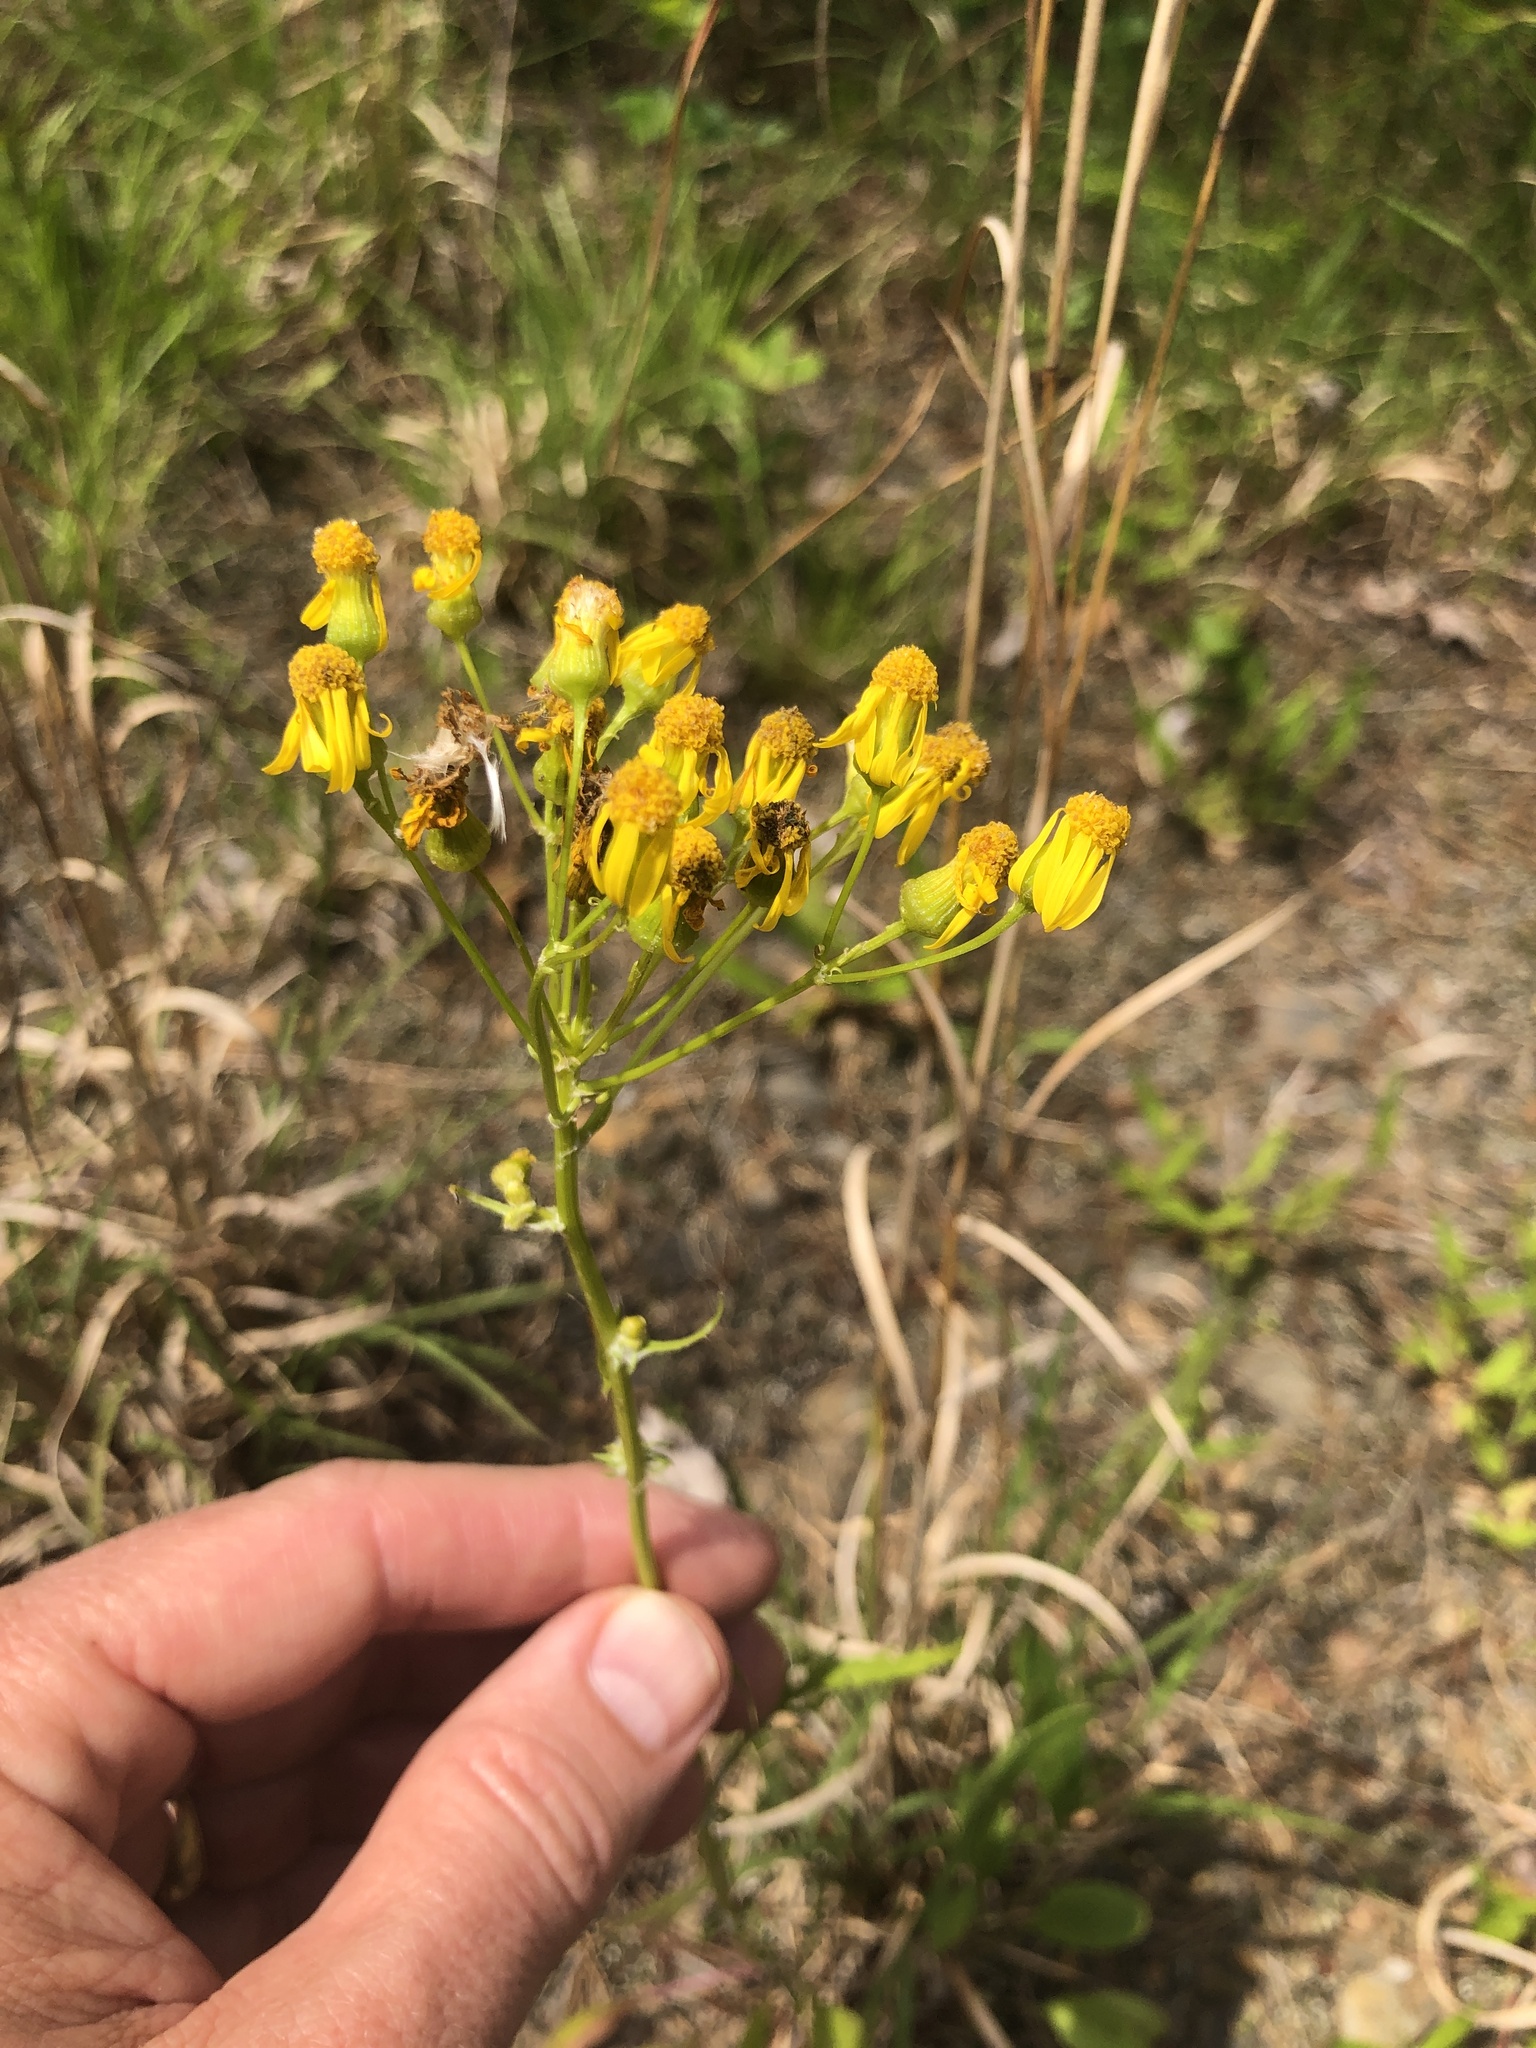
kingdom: Plantae
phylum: Tracheophyta
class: Magnoliopsida
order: Asterales
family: Asteraceae
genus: Packera
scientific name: Packera anonyma
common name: Small ragwort
